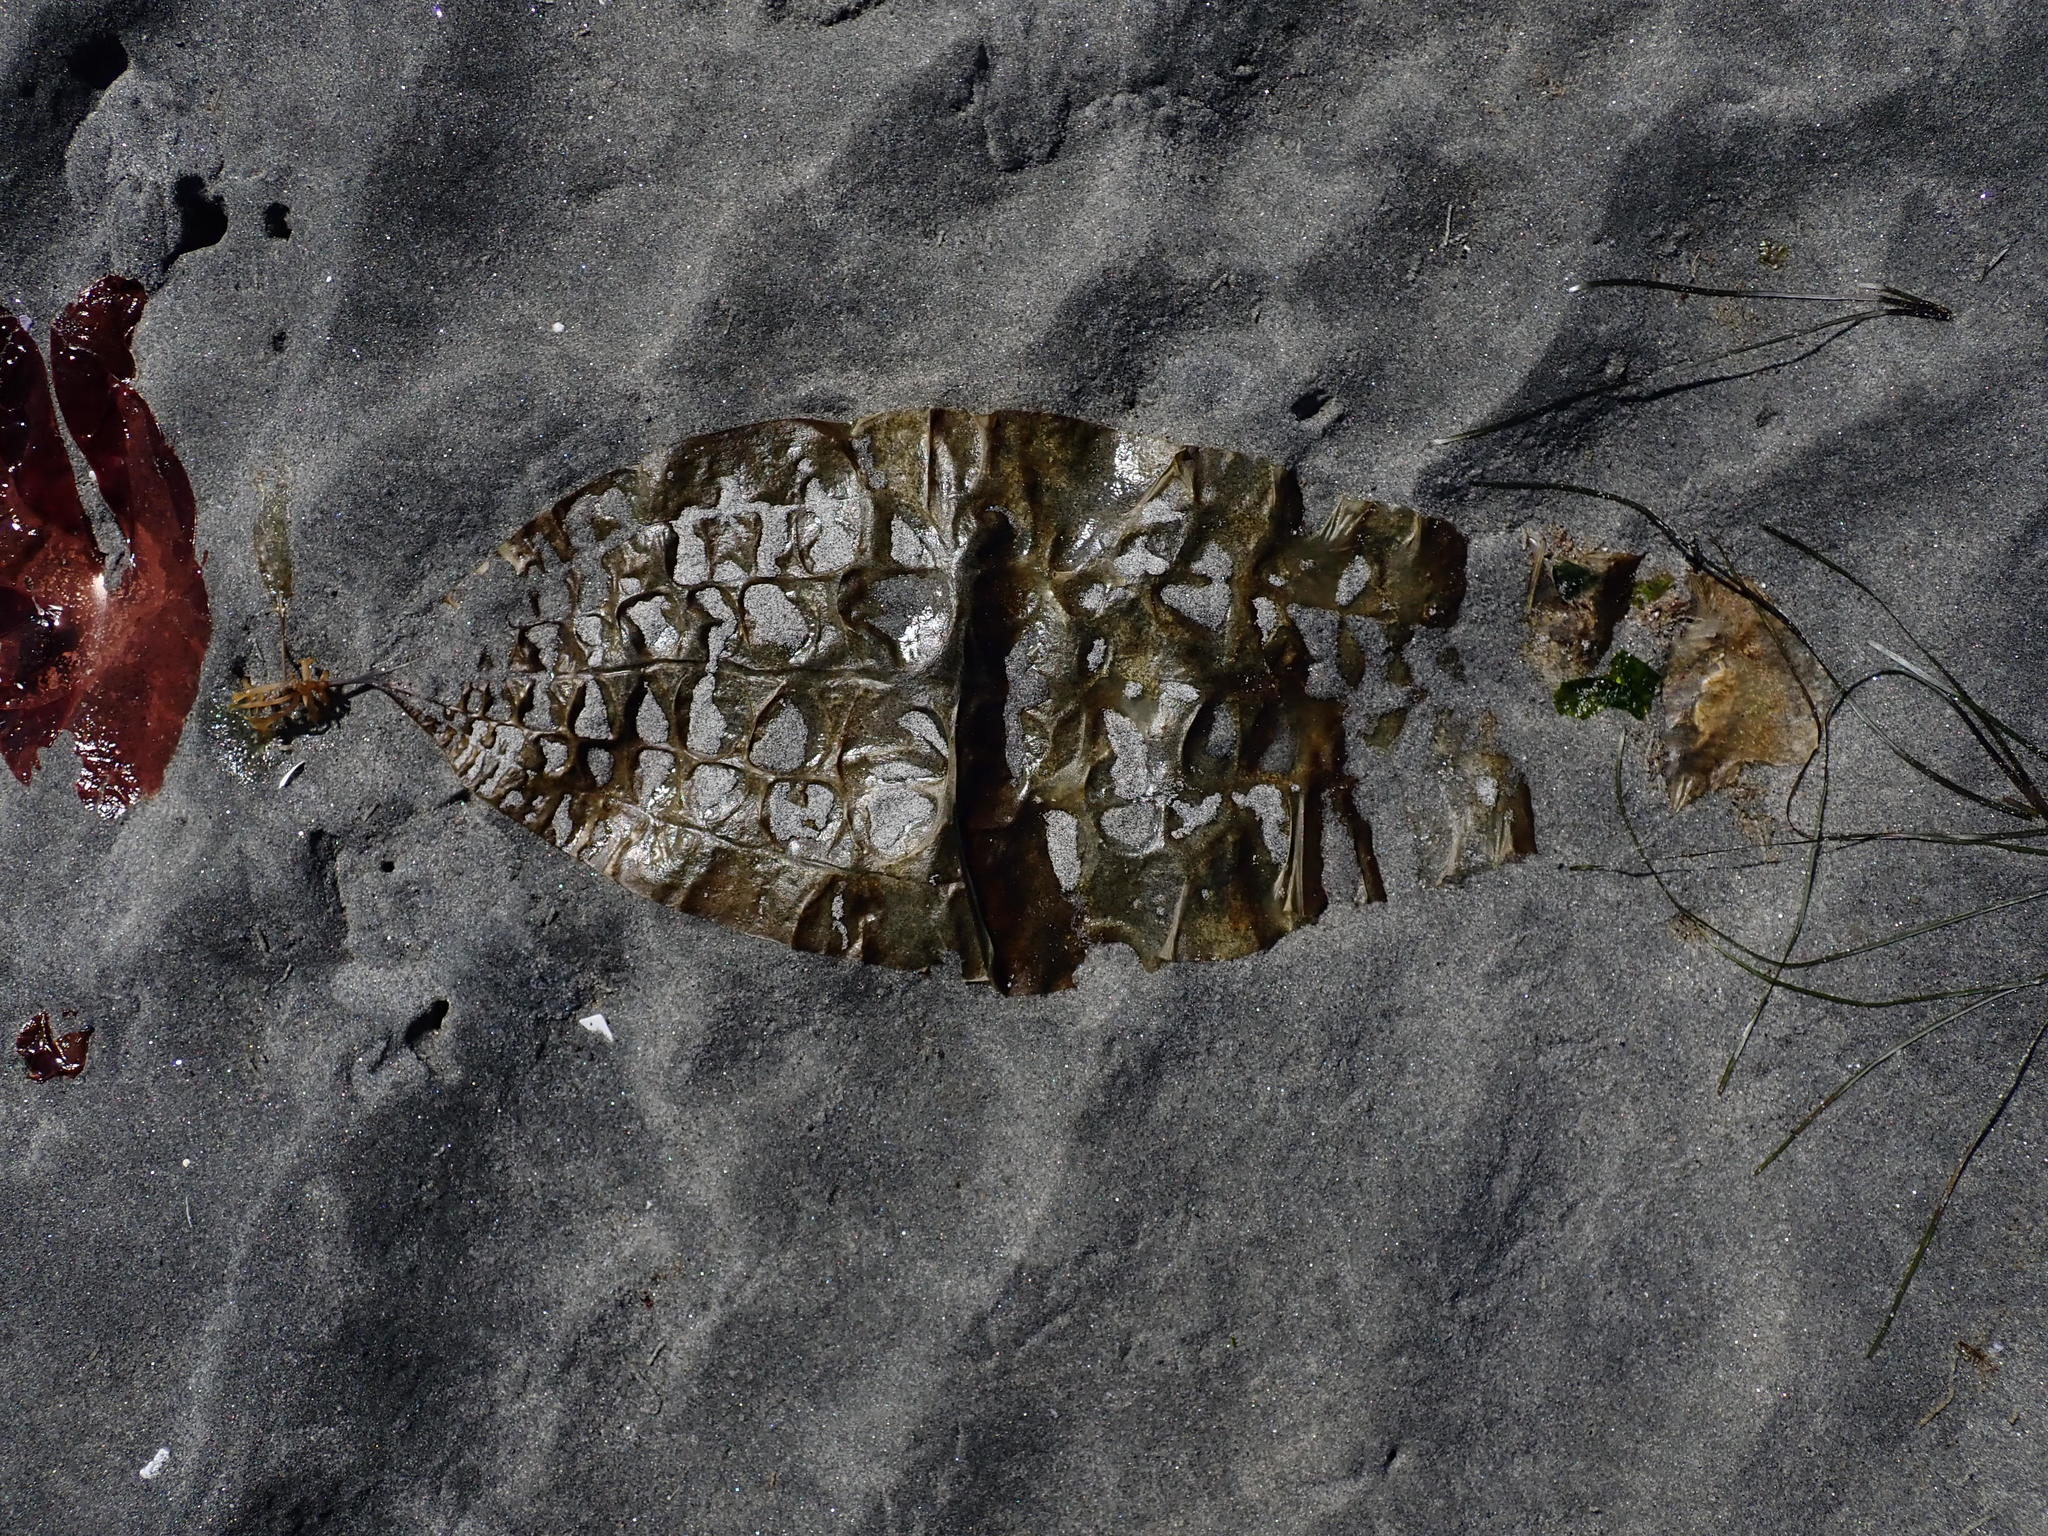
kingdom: Chromista
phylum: Ochrophyta
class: Phaeophyceae
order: Laminariales
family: Costariaceae
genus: Costaria
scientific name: Costaria costata
